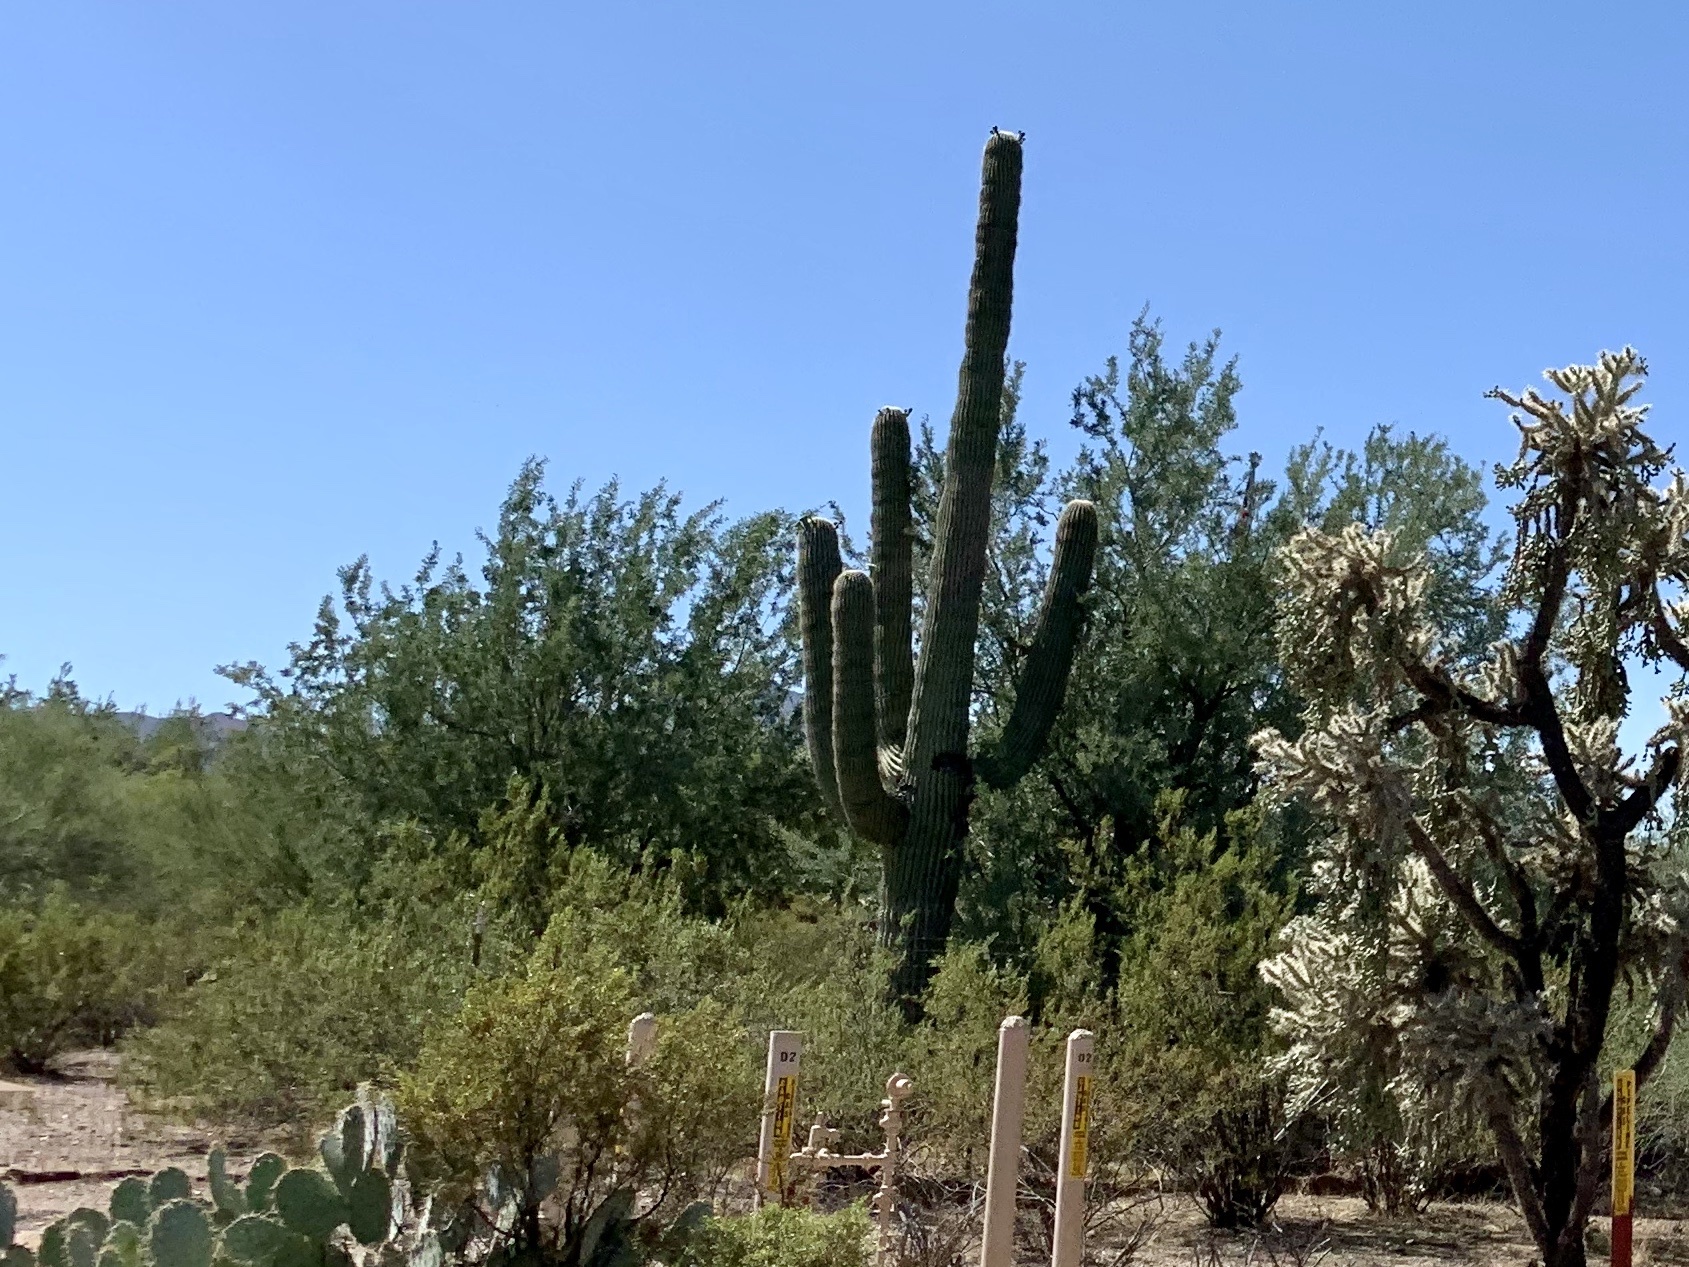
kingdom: Plantae
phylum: Tracheophyta
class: Magnoliopsida
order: Caryophyllales
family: Cactaceae
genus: Carnegiea
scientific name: Carnegiea gigantea
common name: Saguaro
